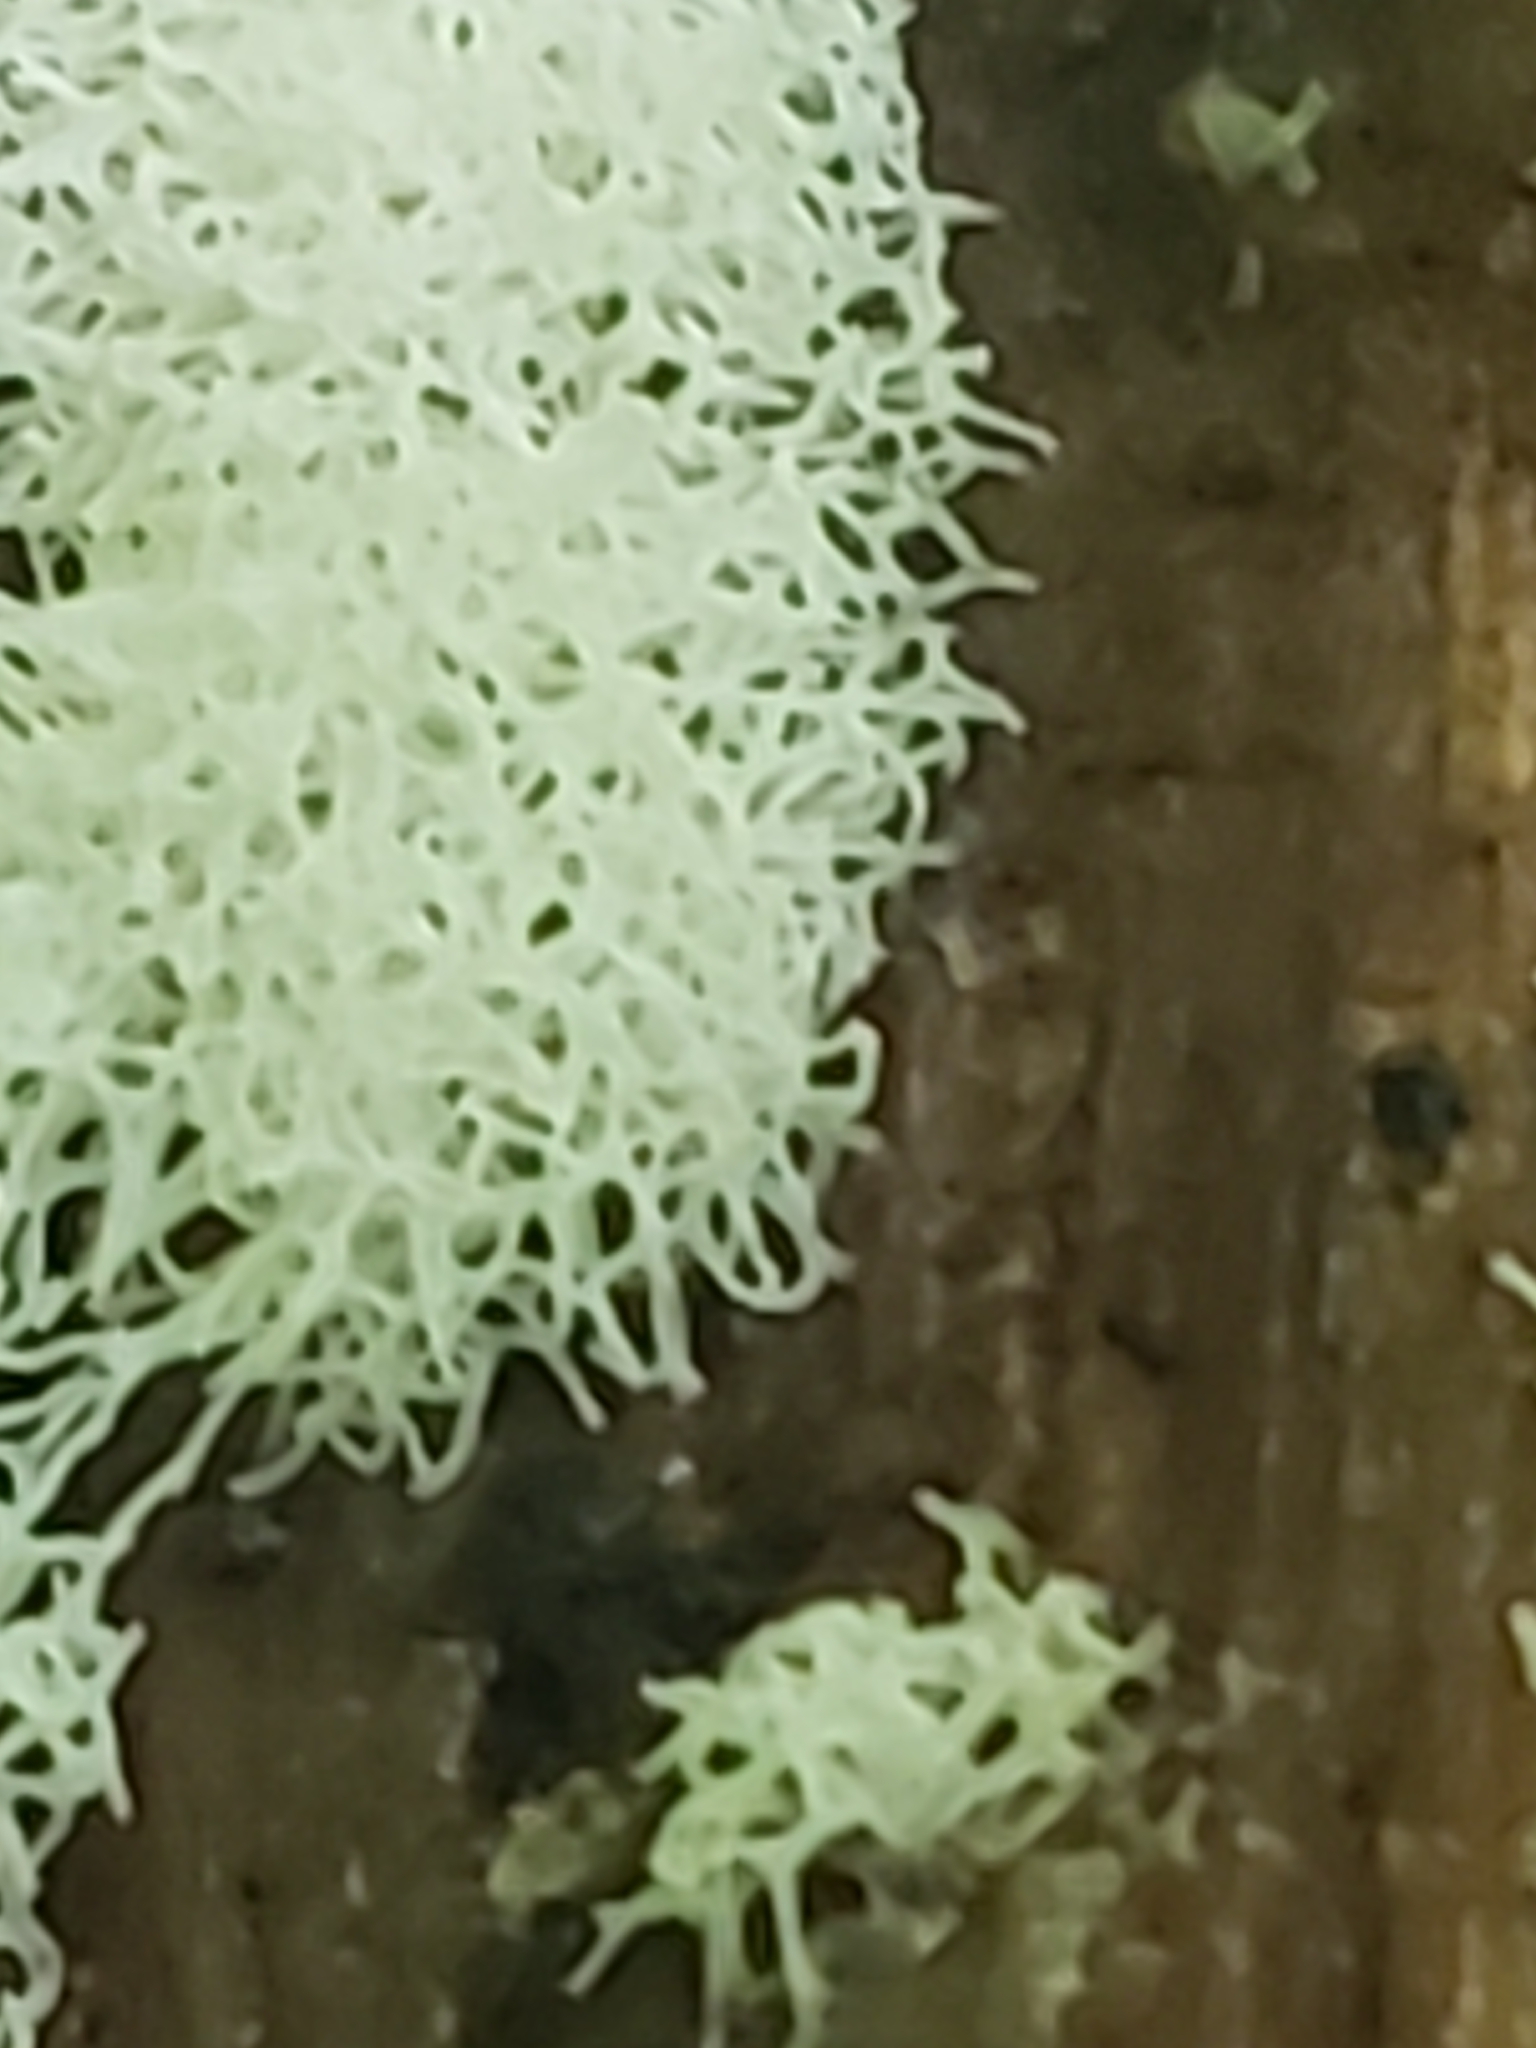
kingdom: Protozoa
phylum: Mycetozoa
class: Protosteliomycetes
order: Ceratiomyxales
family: Ceratiomyxaceae
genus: Ceratiomyxa
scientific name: Ceratiomyxa fruticulosa
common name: Honeycomb coral slime mold
